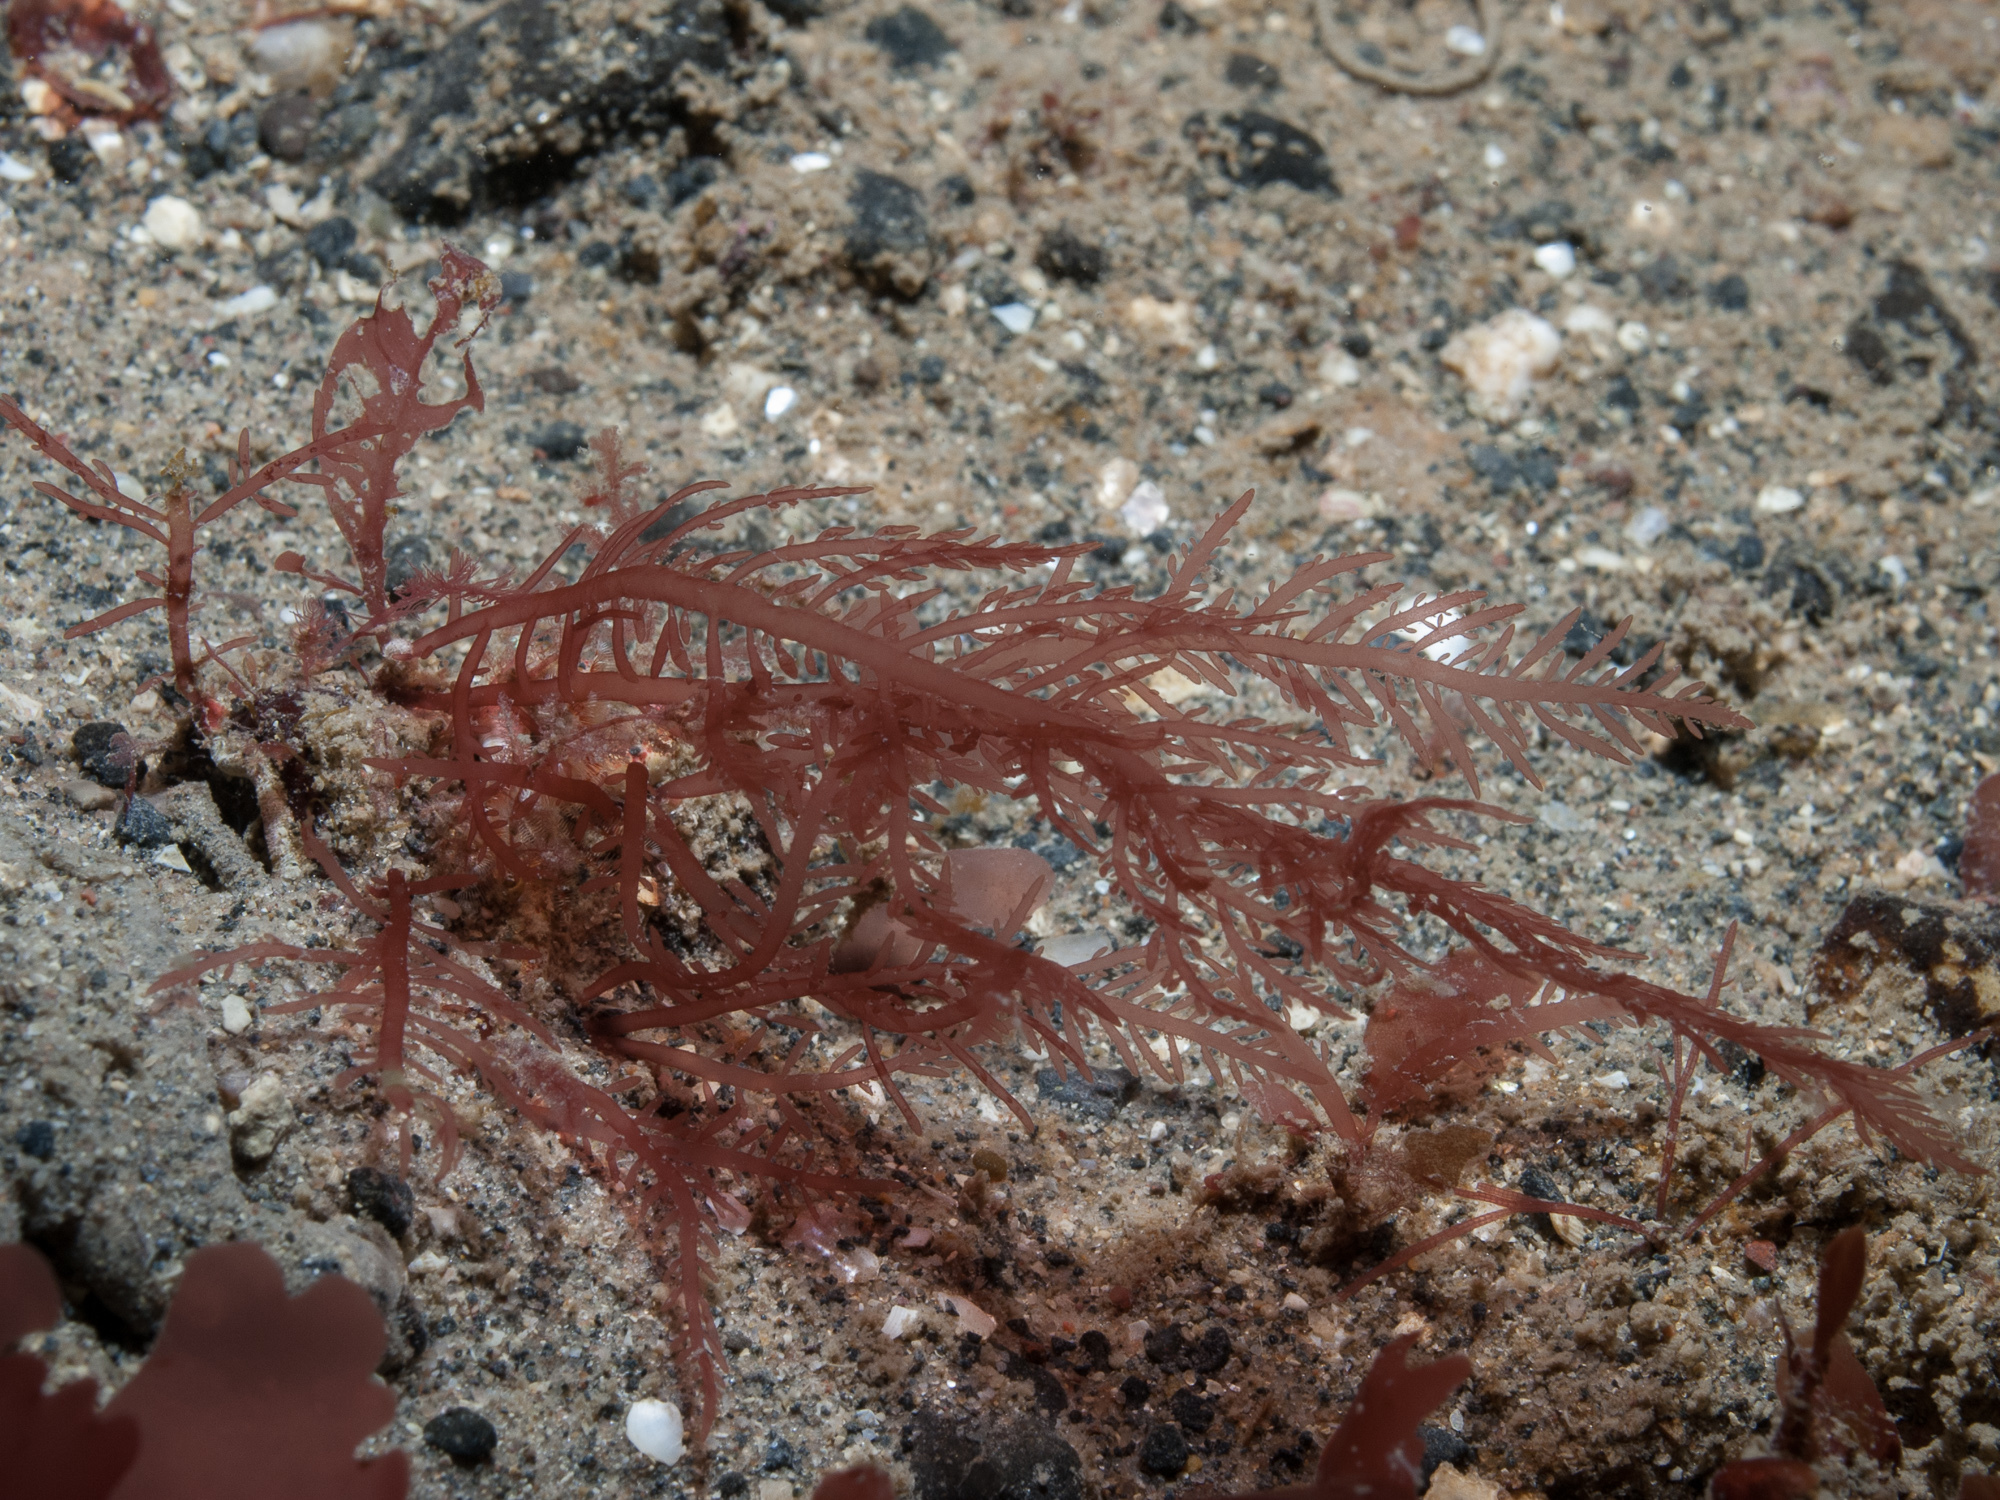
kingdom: Plantae
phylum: Rhodophyta
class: Florideophyceae
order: Rhodymeniales
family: Lomentariaceae
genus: Lomentaria
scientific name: Lomentaria clavellosa
